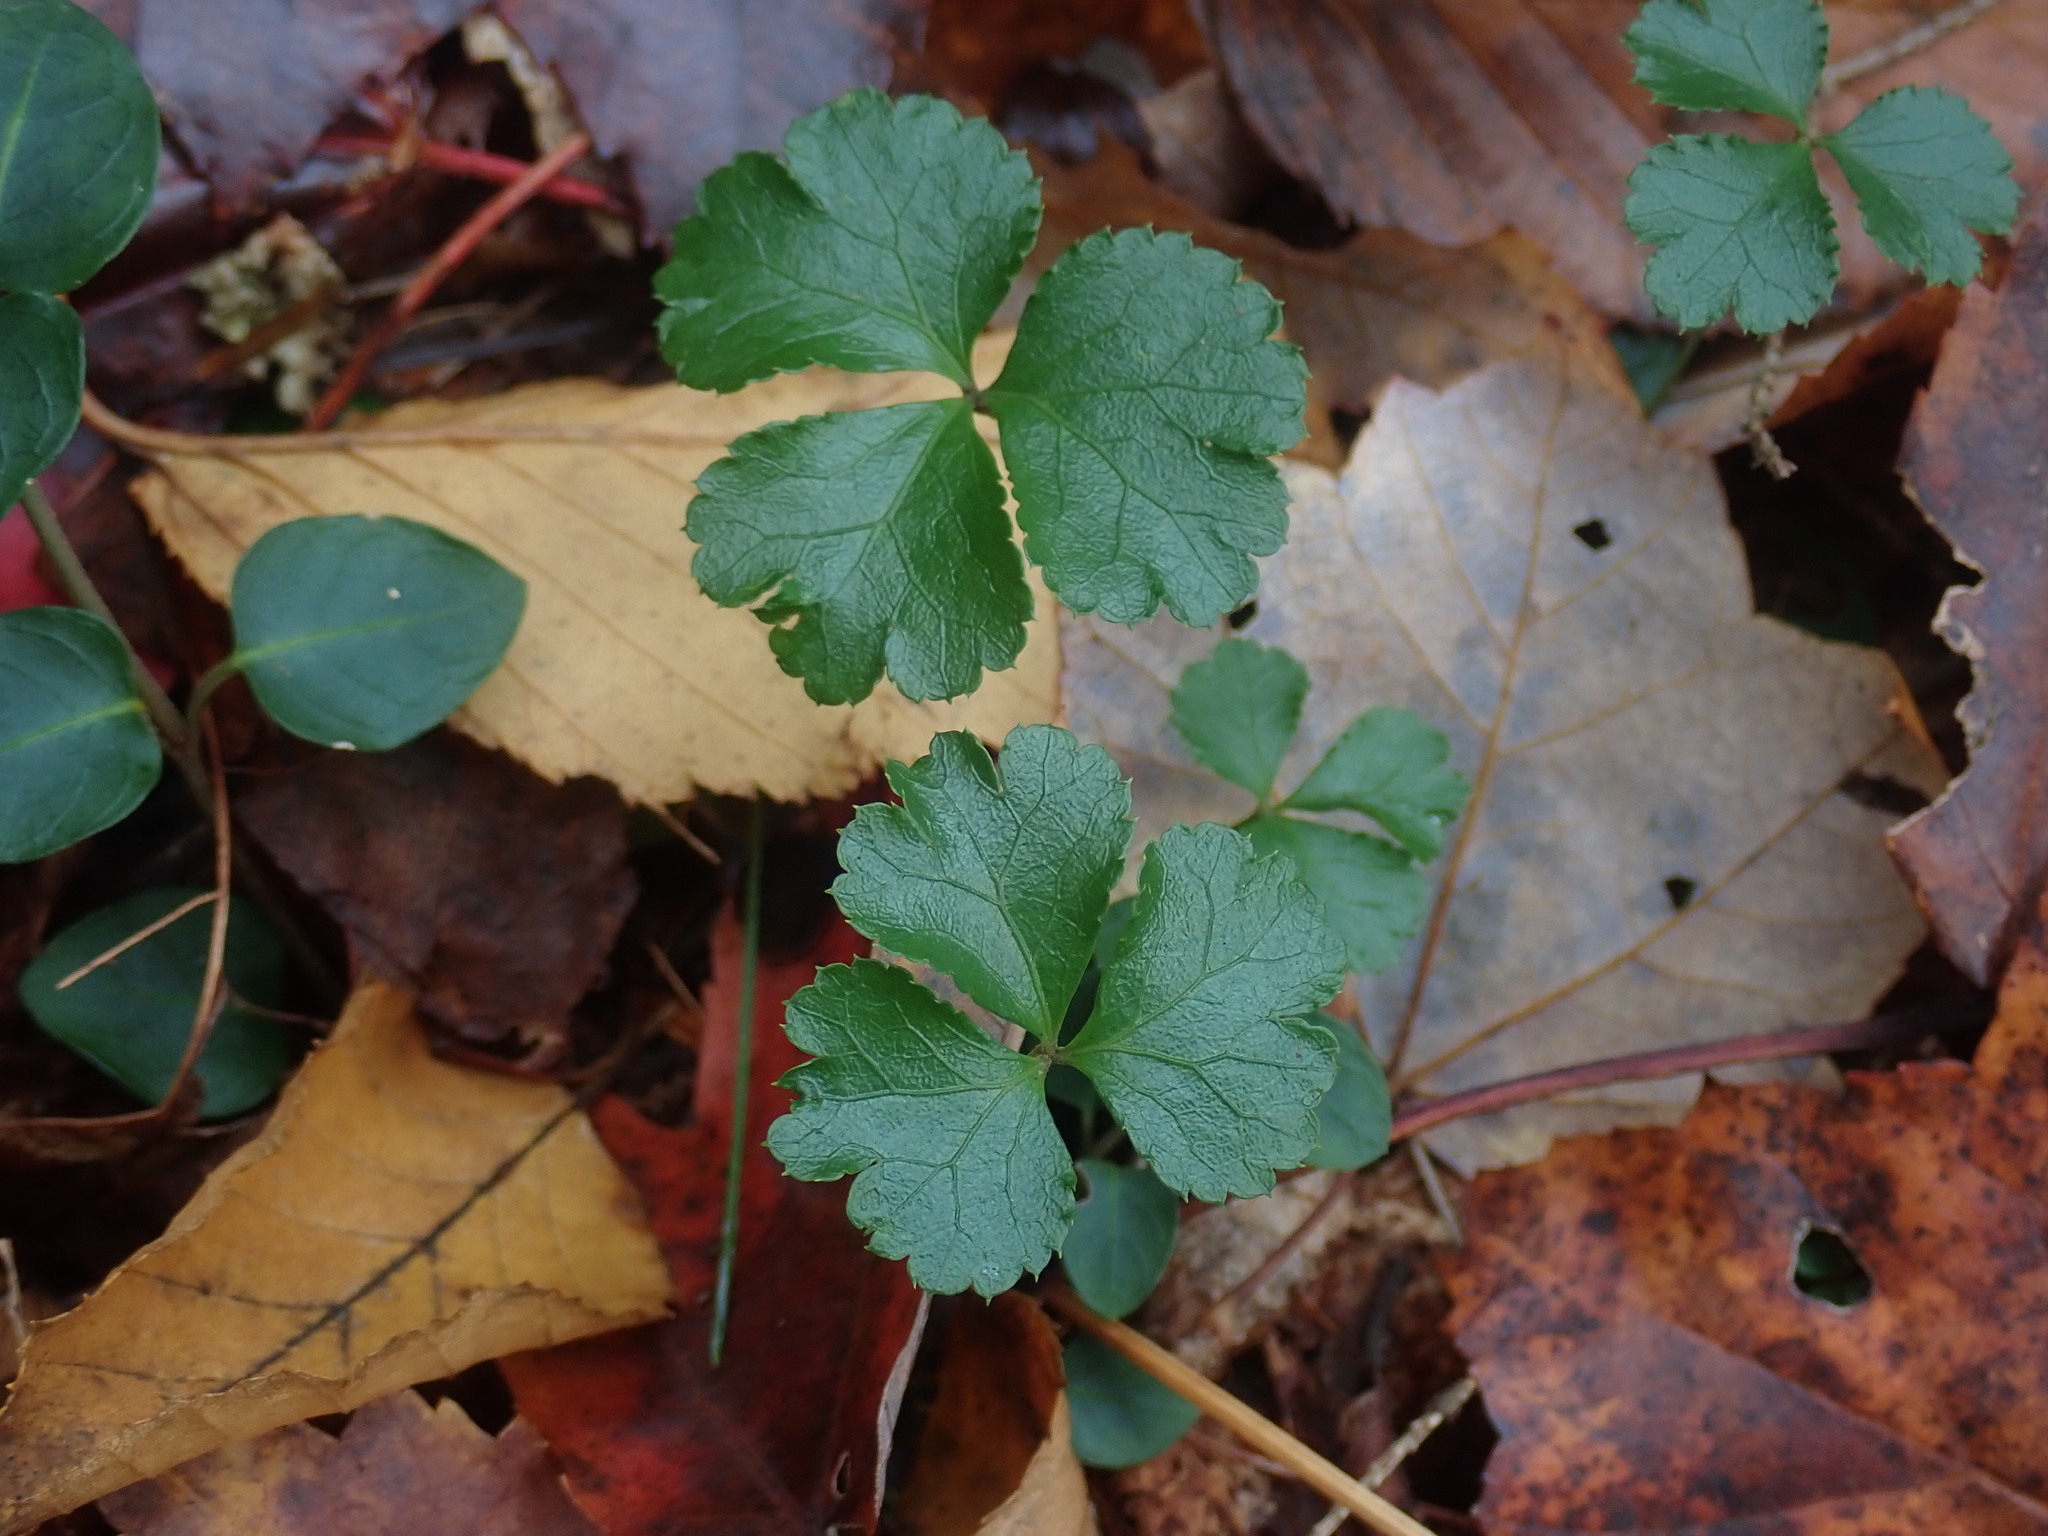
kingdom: Plantae
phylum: Tracheophyta
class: Magnoliopsida
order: Ranunculales
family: Ranunculaceae
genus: Coptis
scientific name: Coptis trifolia
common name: Canker-root
